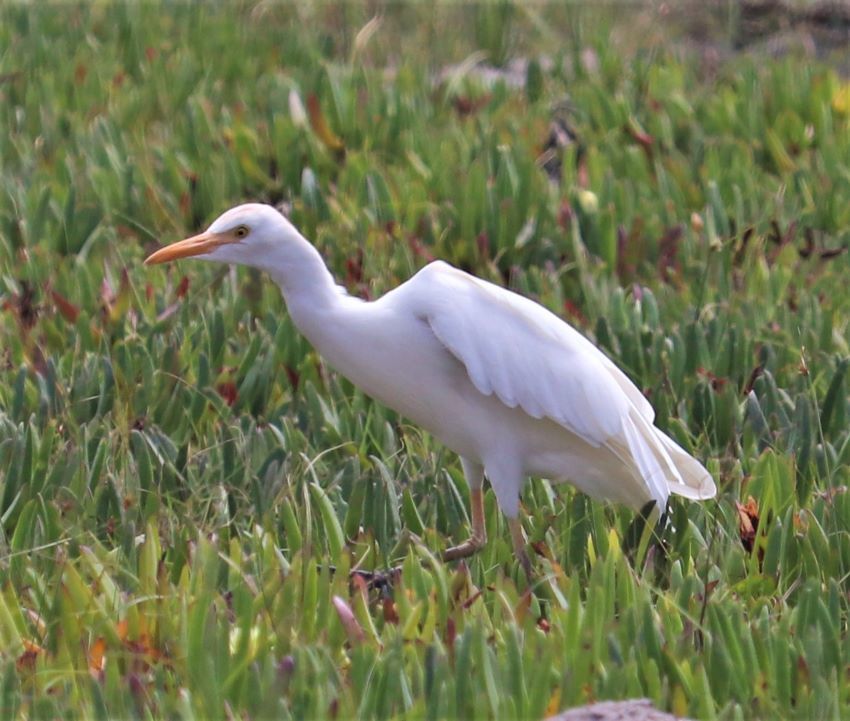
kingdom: Animalia
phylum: Chordata
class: Aves
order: Pelecaniformes
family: Ardeidae
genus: Bubulcus
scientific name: Bubulcus ibis
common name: Cattle egret
